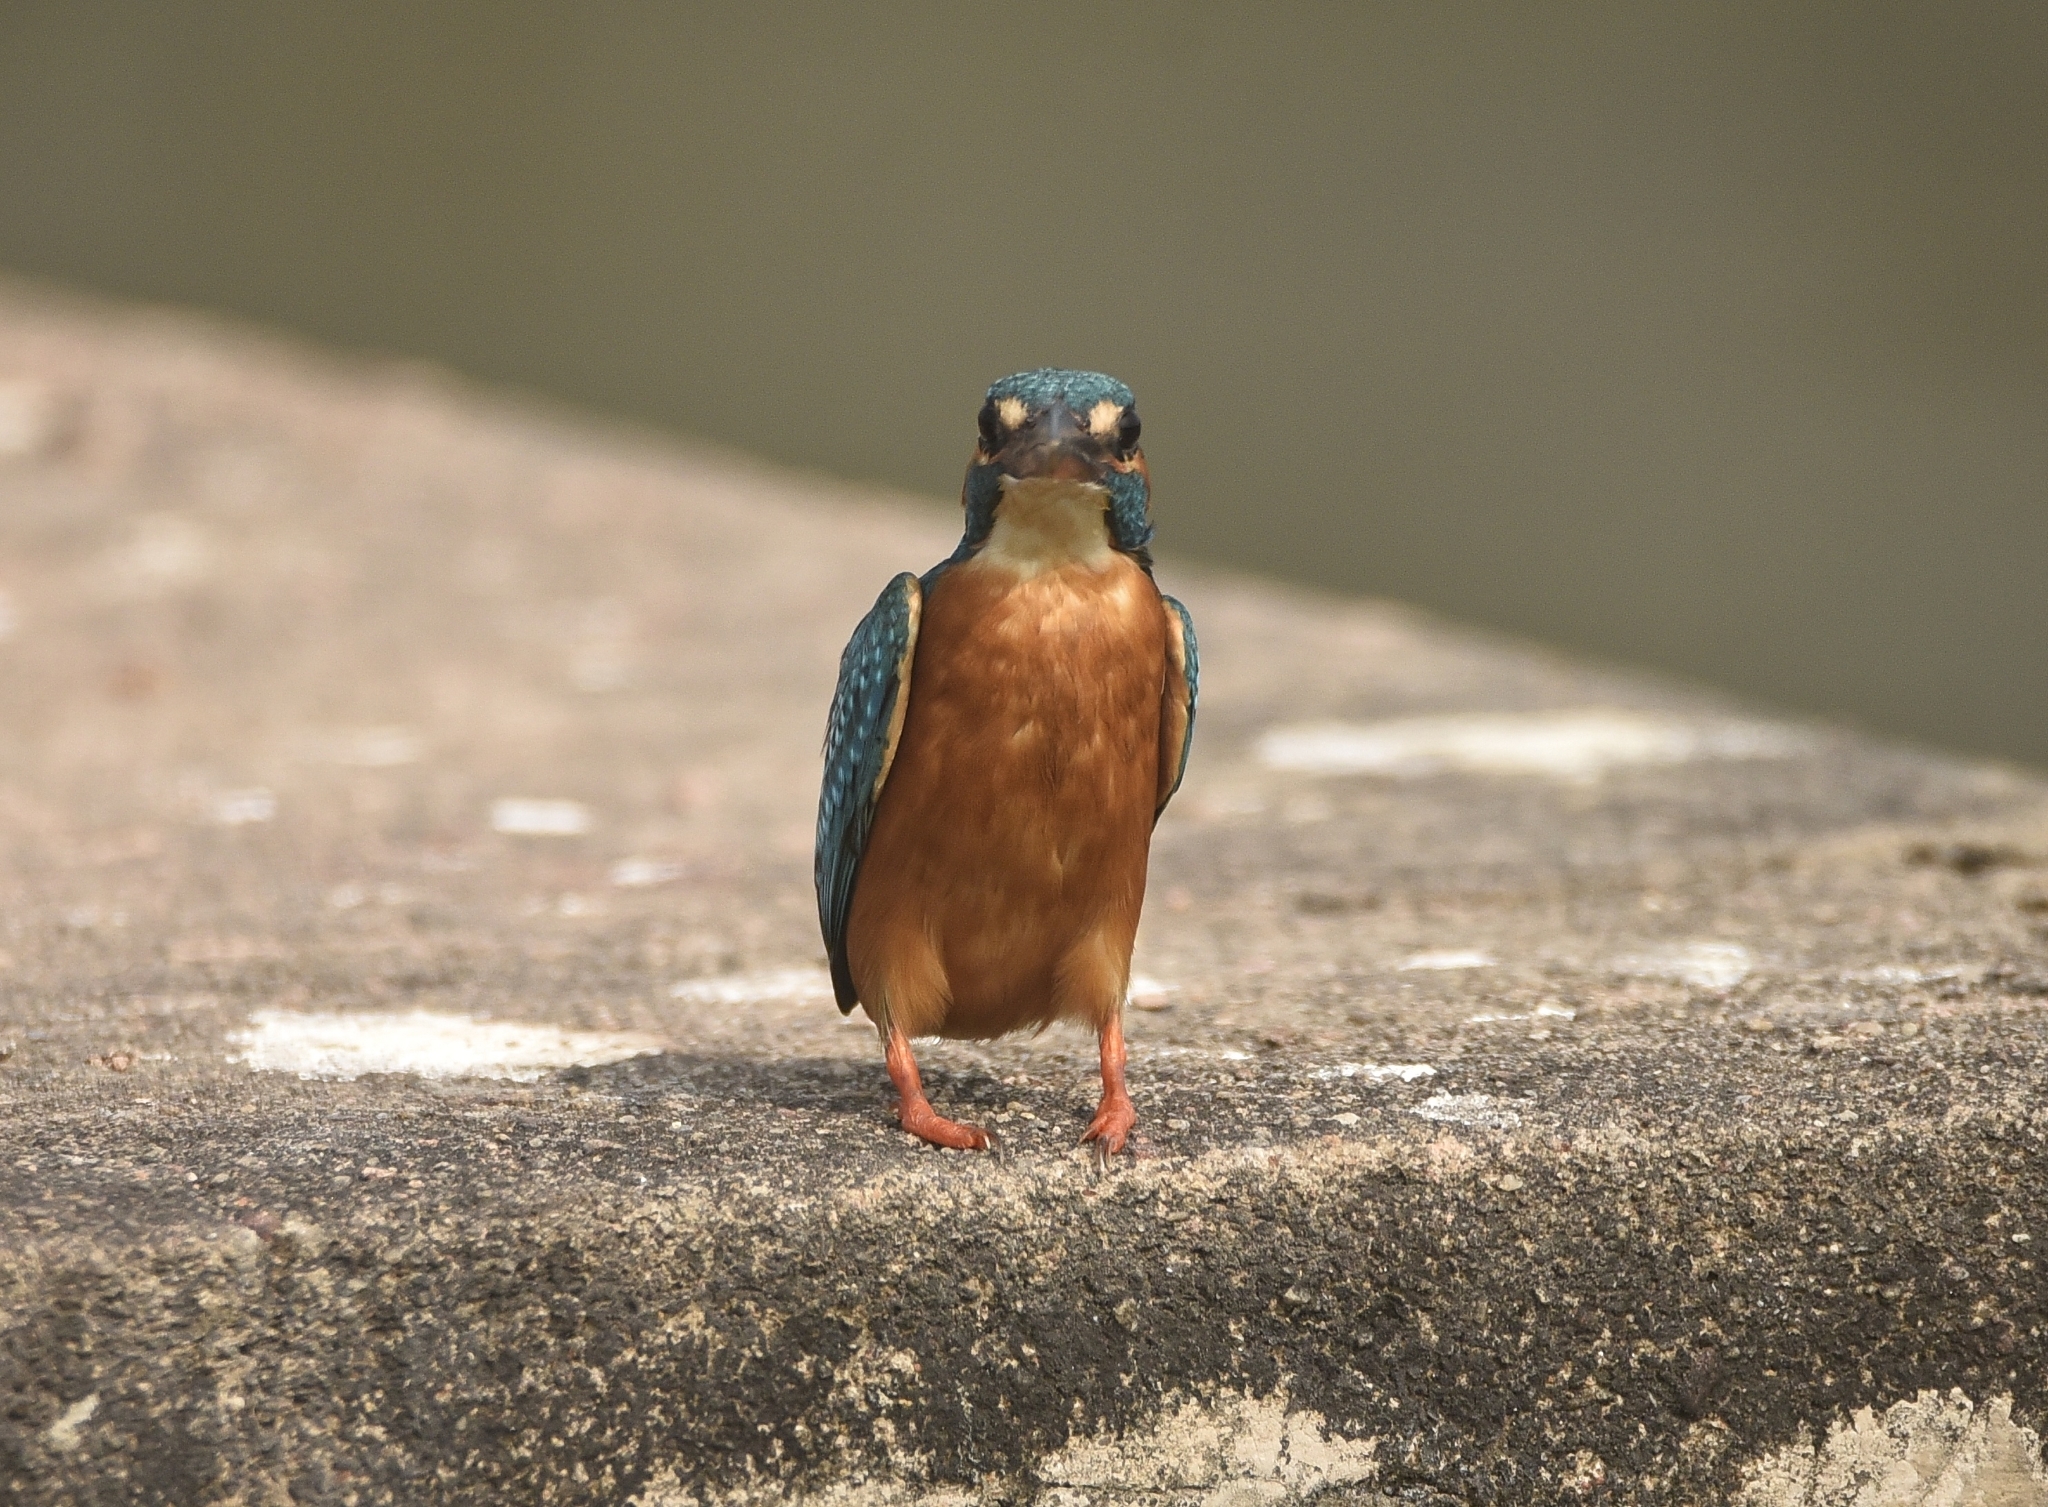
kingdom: Animalia
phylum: Chordata
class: Aves
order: Coraciiformes
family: Alcedinidae
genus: Alcedo
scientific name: Alcedo atthis
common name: Common kingfisher
